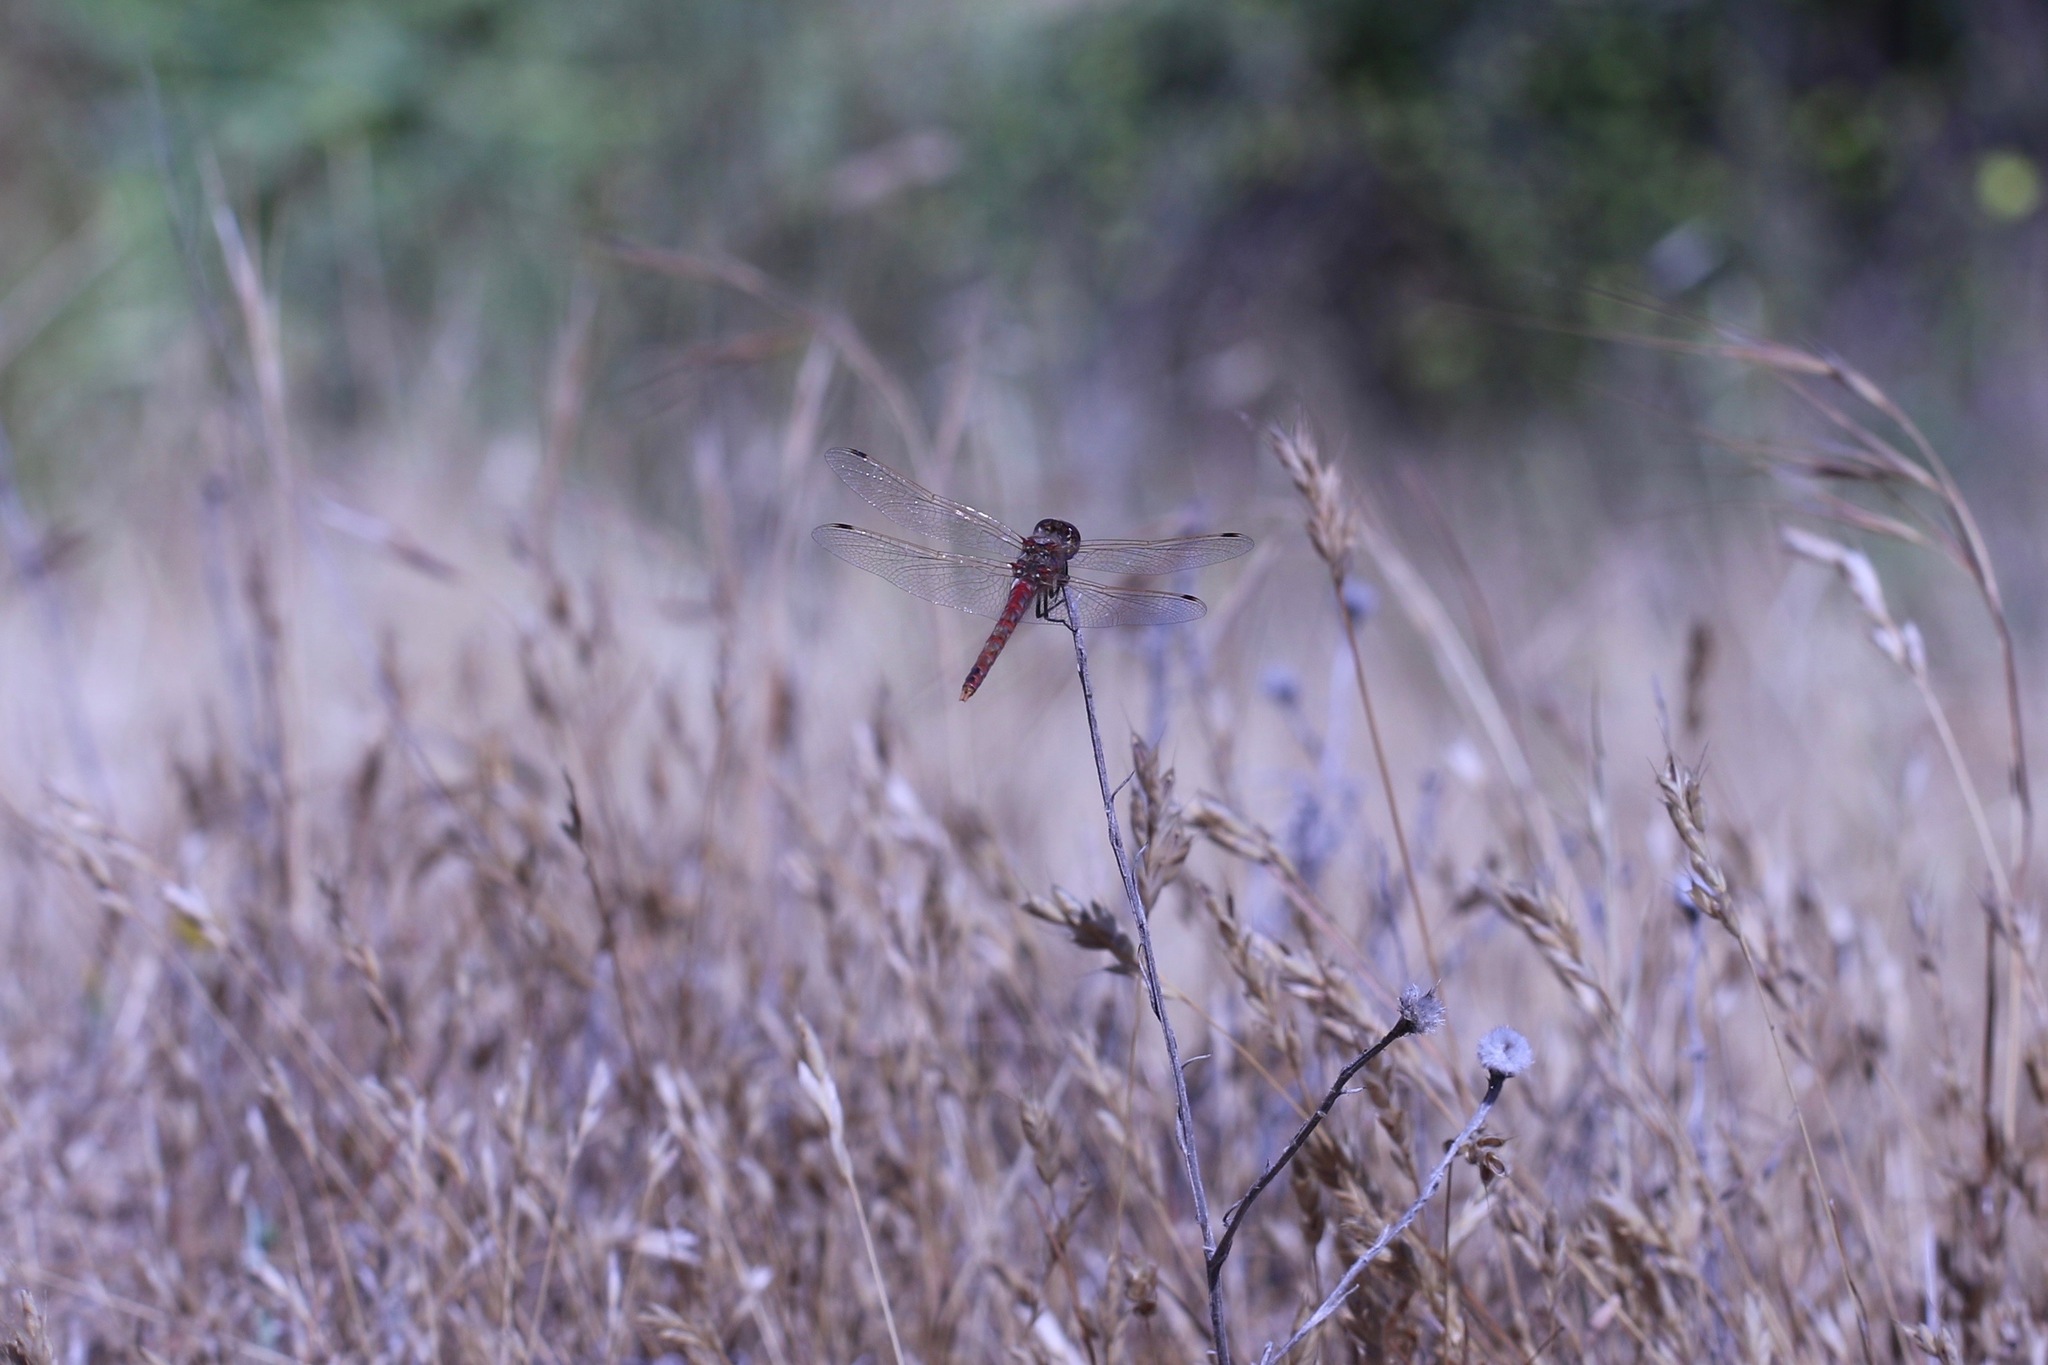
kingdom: Animalia
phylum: Arthropoda
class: Insecta
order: Odonata
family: Libellulidae
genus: Sympetrum
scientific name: Sympetrum corruptum
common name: Variegated meadowhawk
